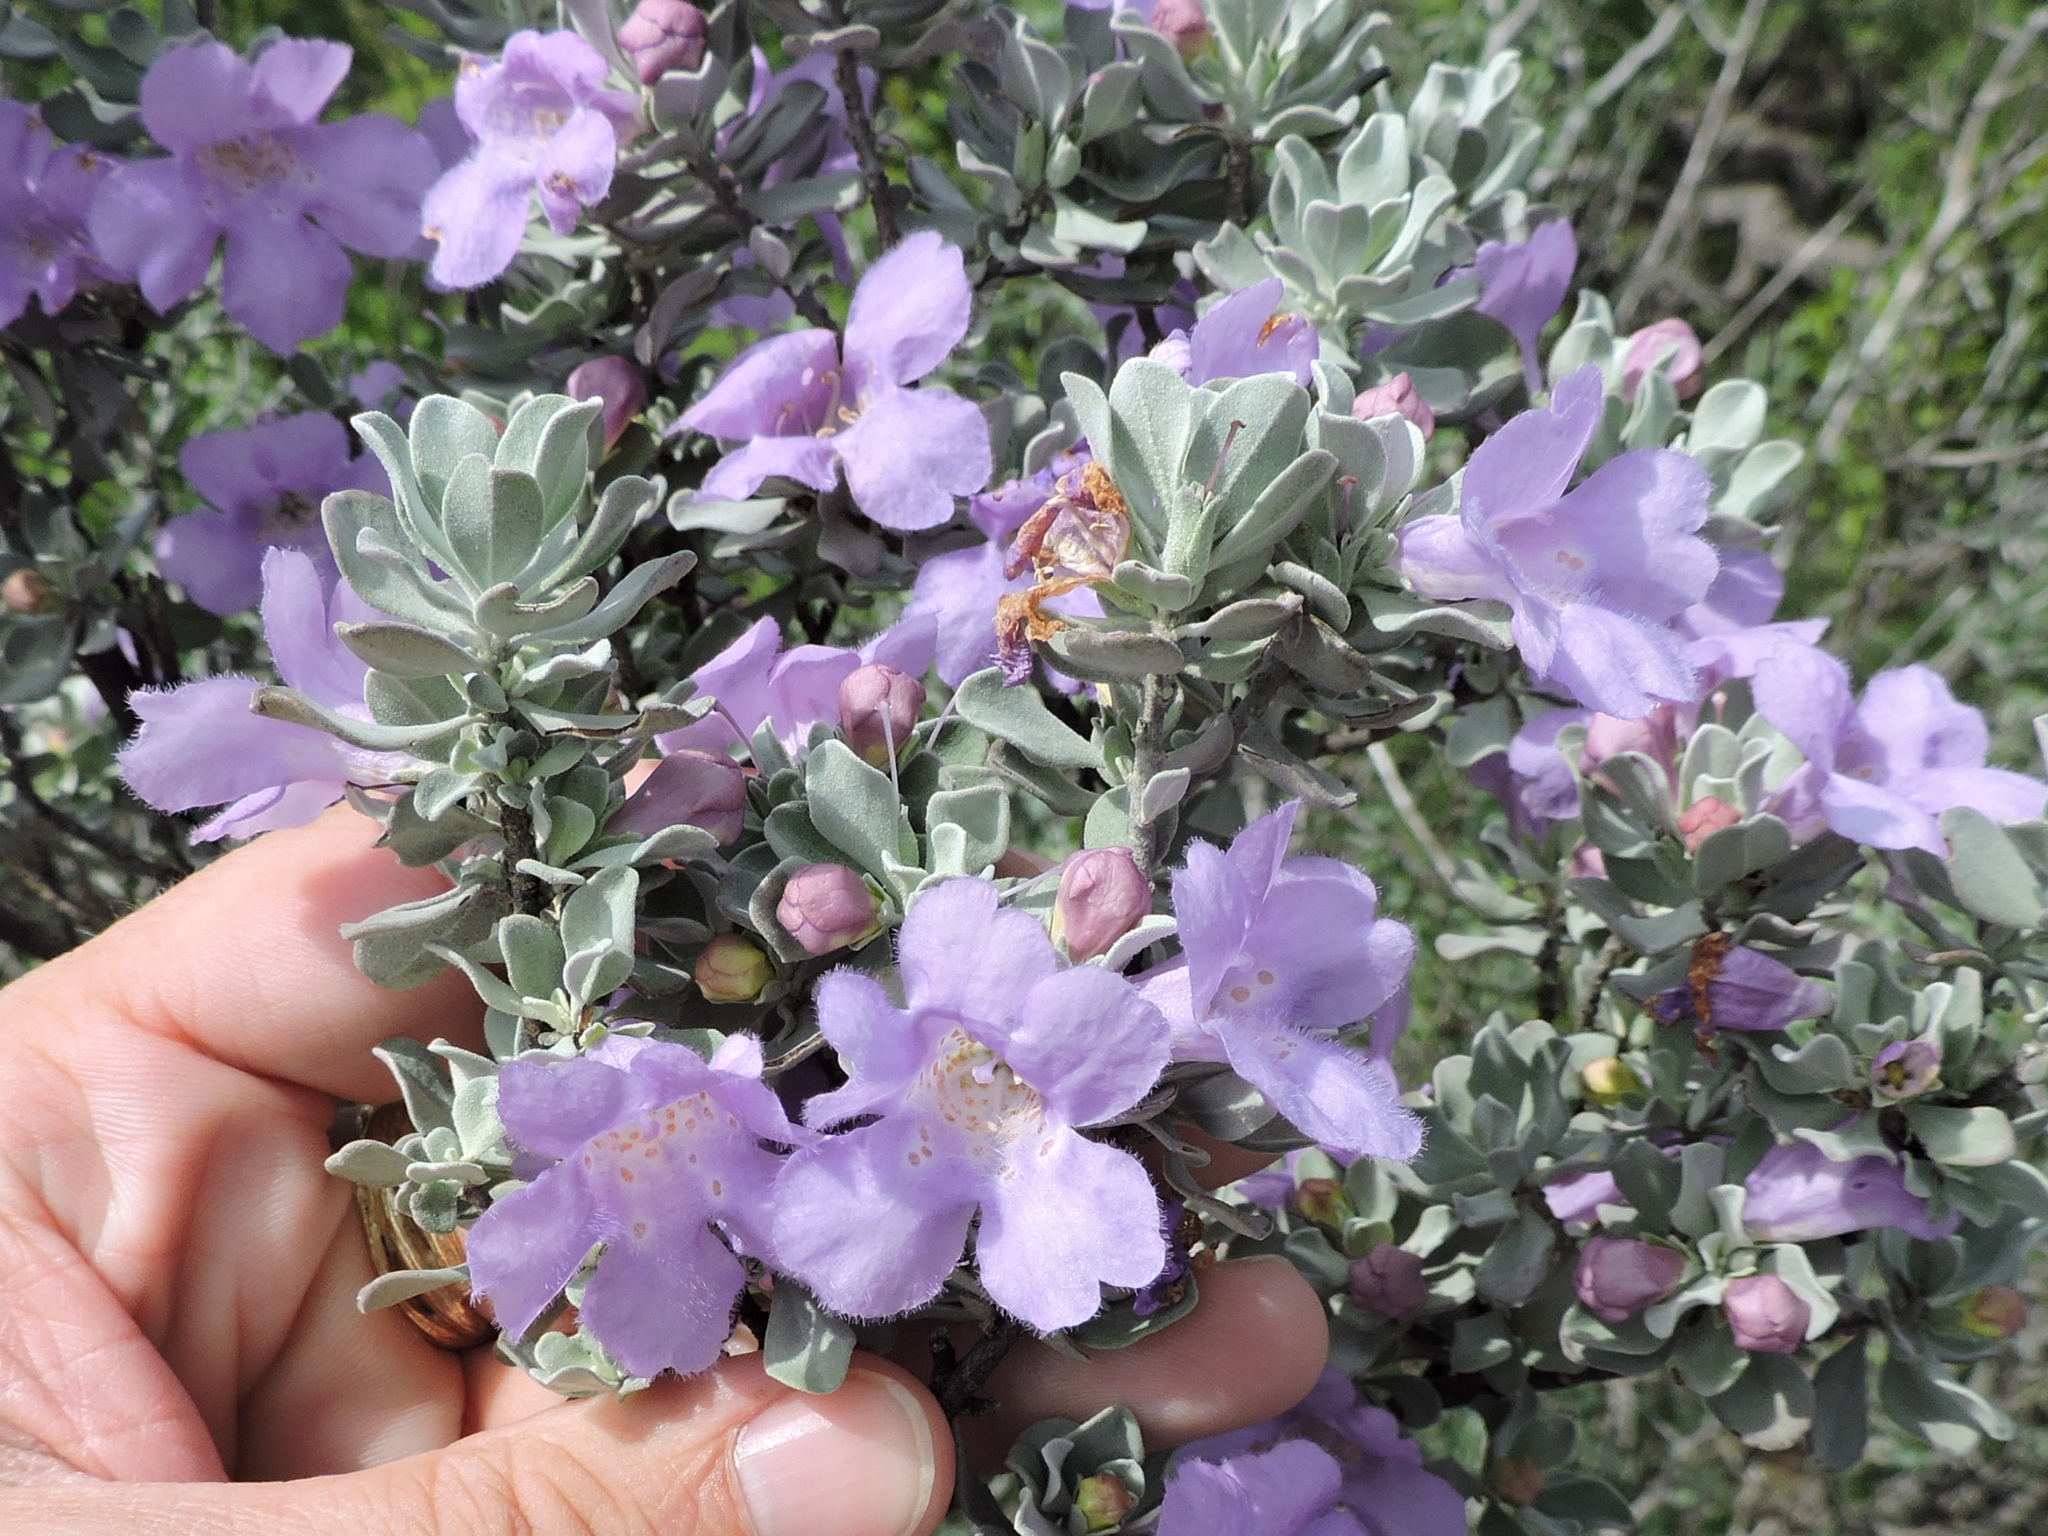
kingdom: Plantae
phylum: Tracheophyta
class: Magnoliopsida
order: Lamiales
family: Scrophulariaceae
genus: Leucophyllum
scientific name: Leucophyllum frutescens
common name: Texas silverleaf
